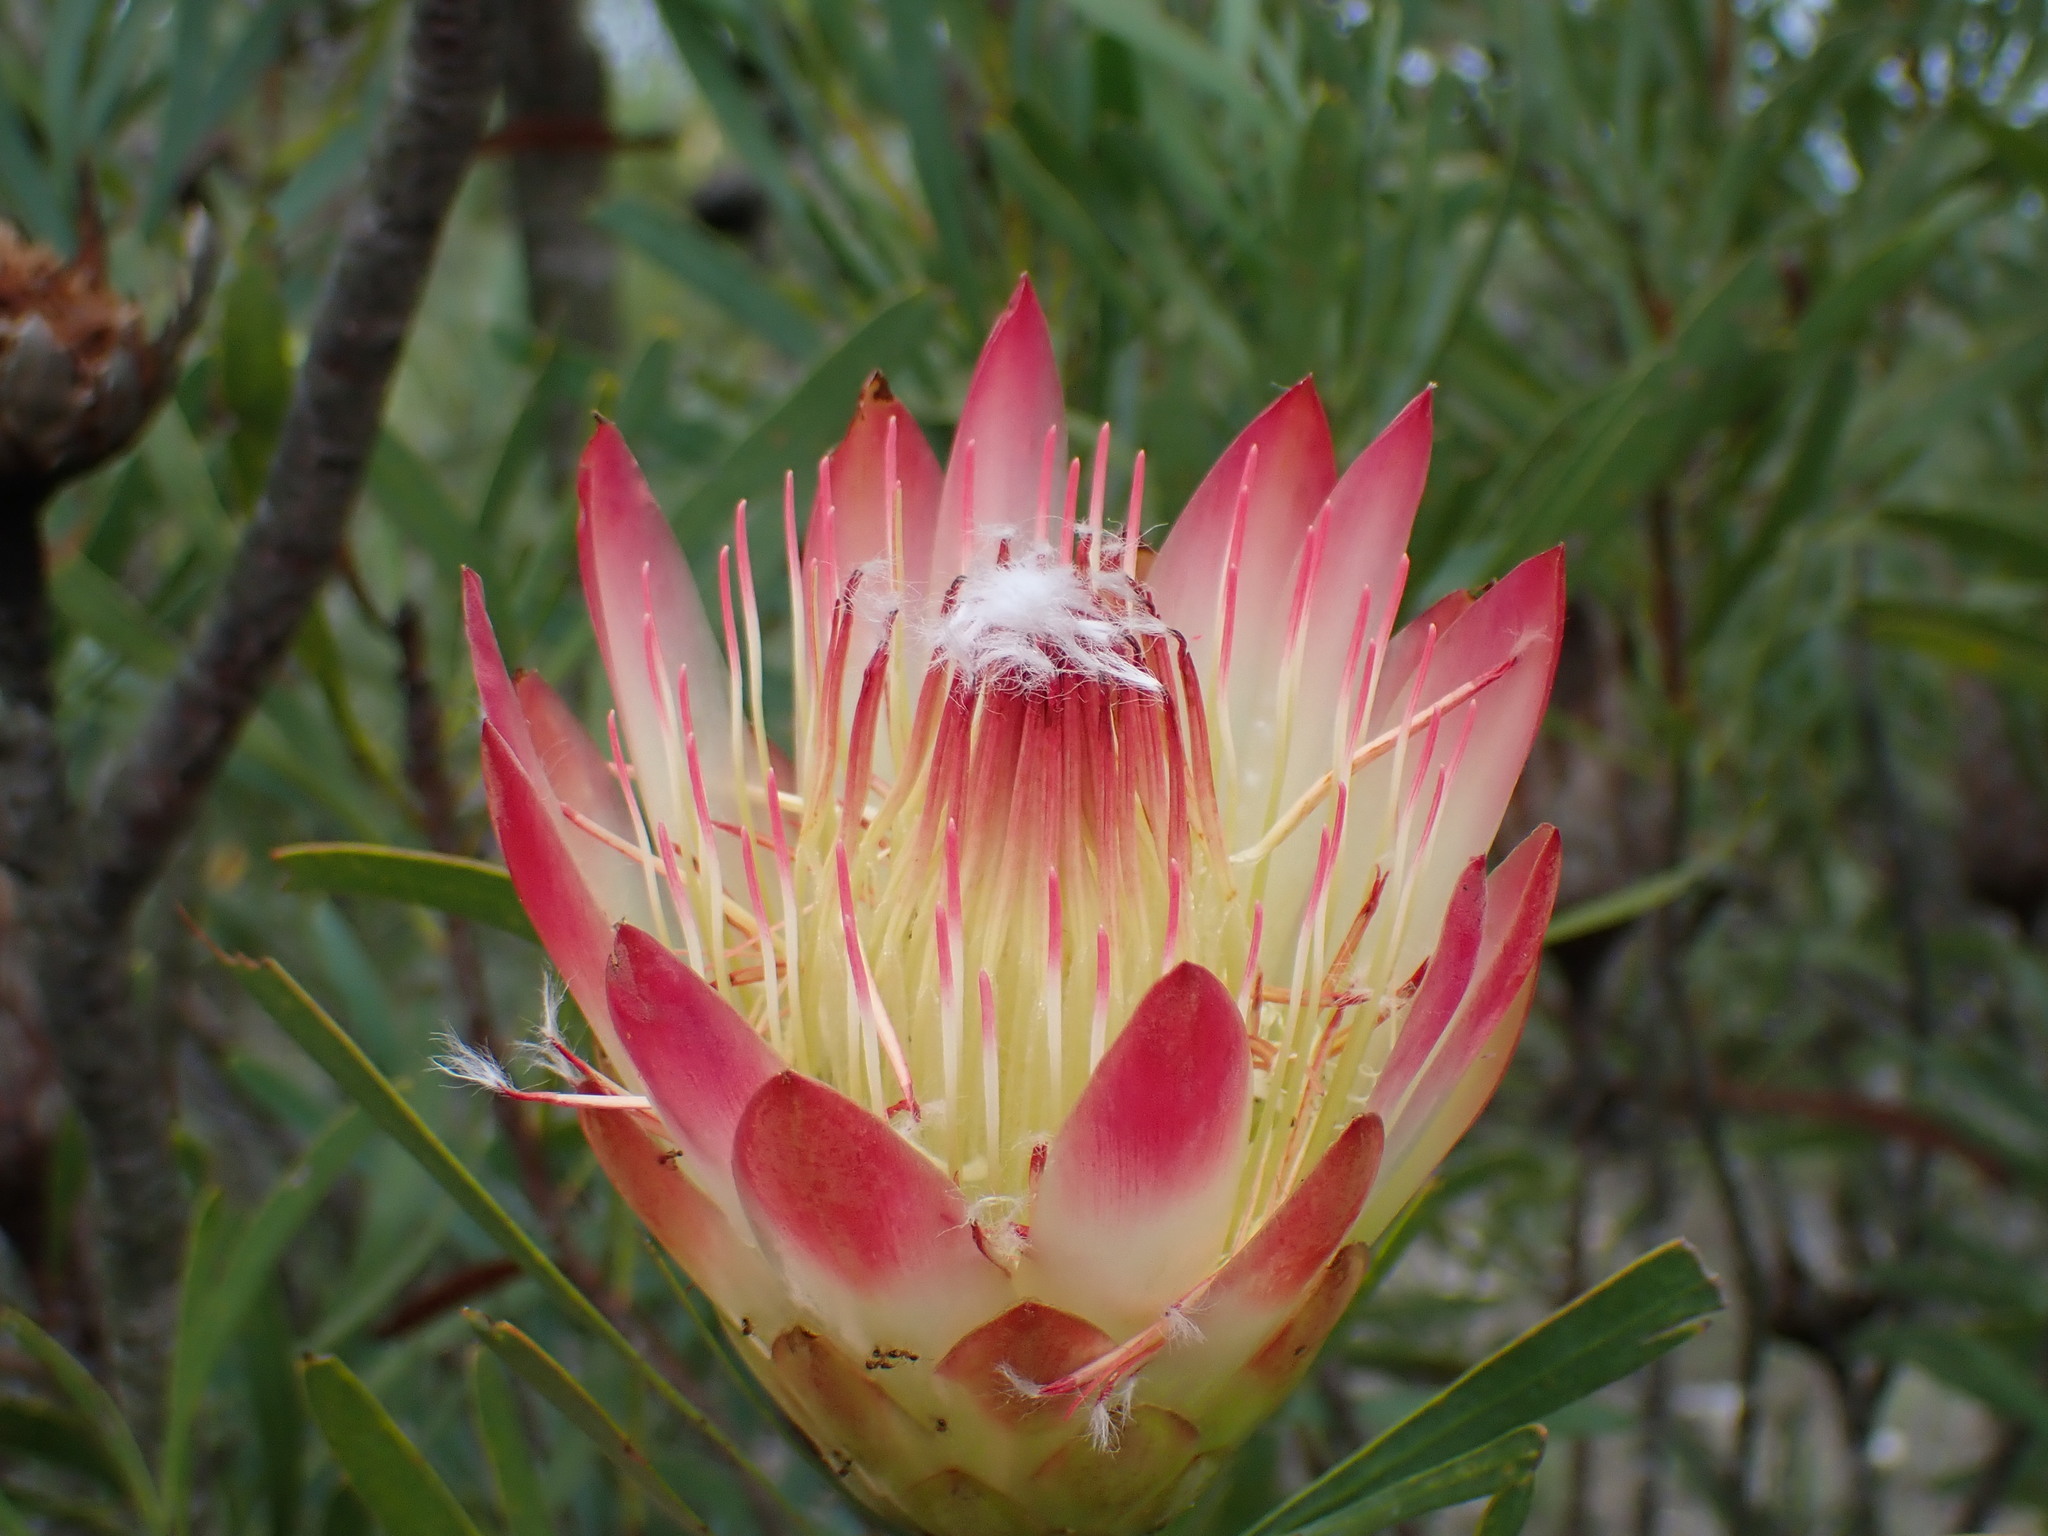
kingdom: Plantae
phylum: Tracheophyta
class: Magnoliopsida
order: Proteales
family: Proteaceae
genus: Protea
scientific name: Protea repens
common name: Sugarbush
